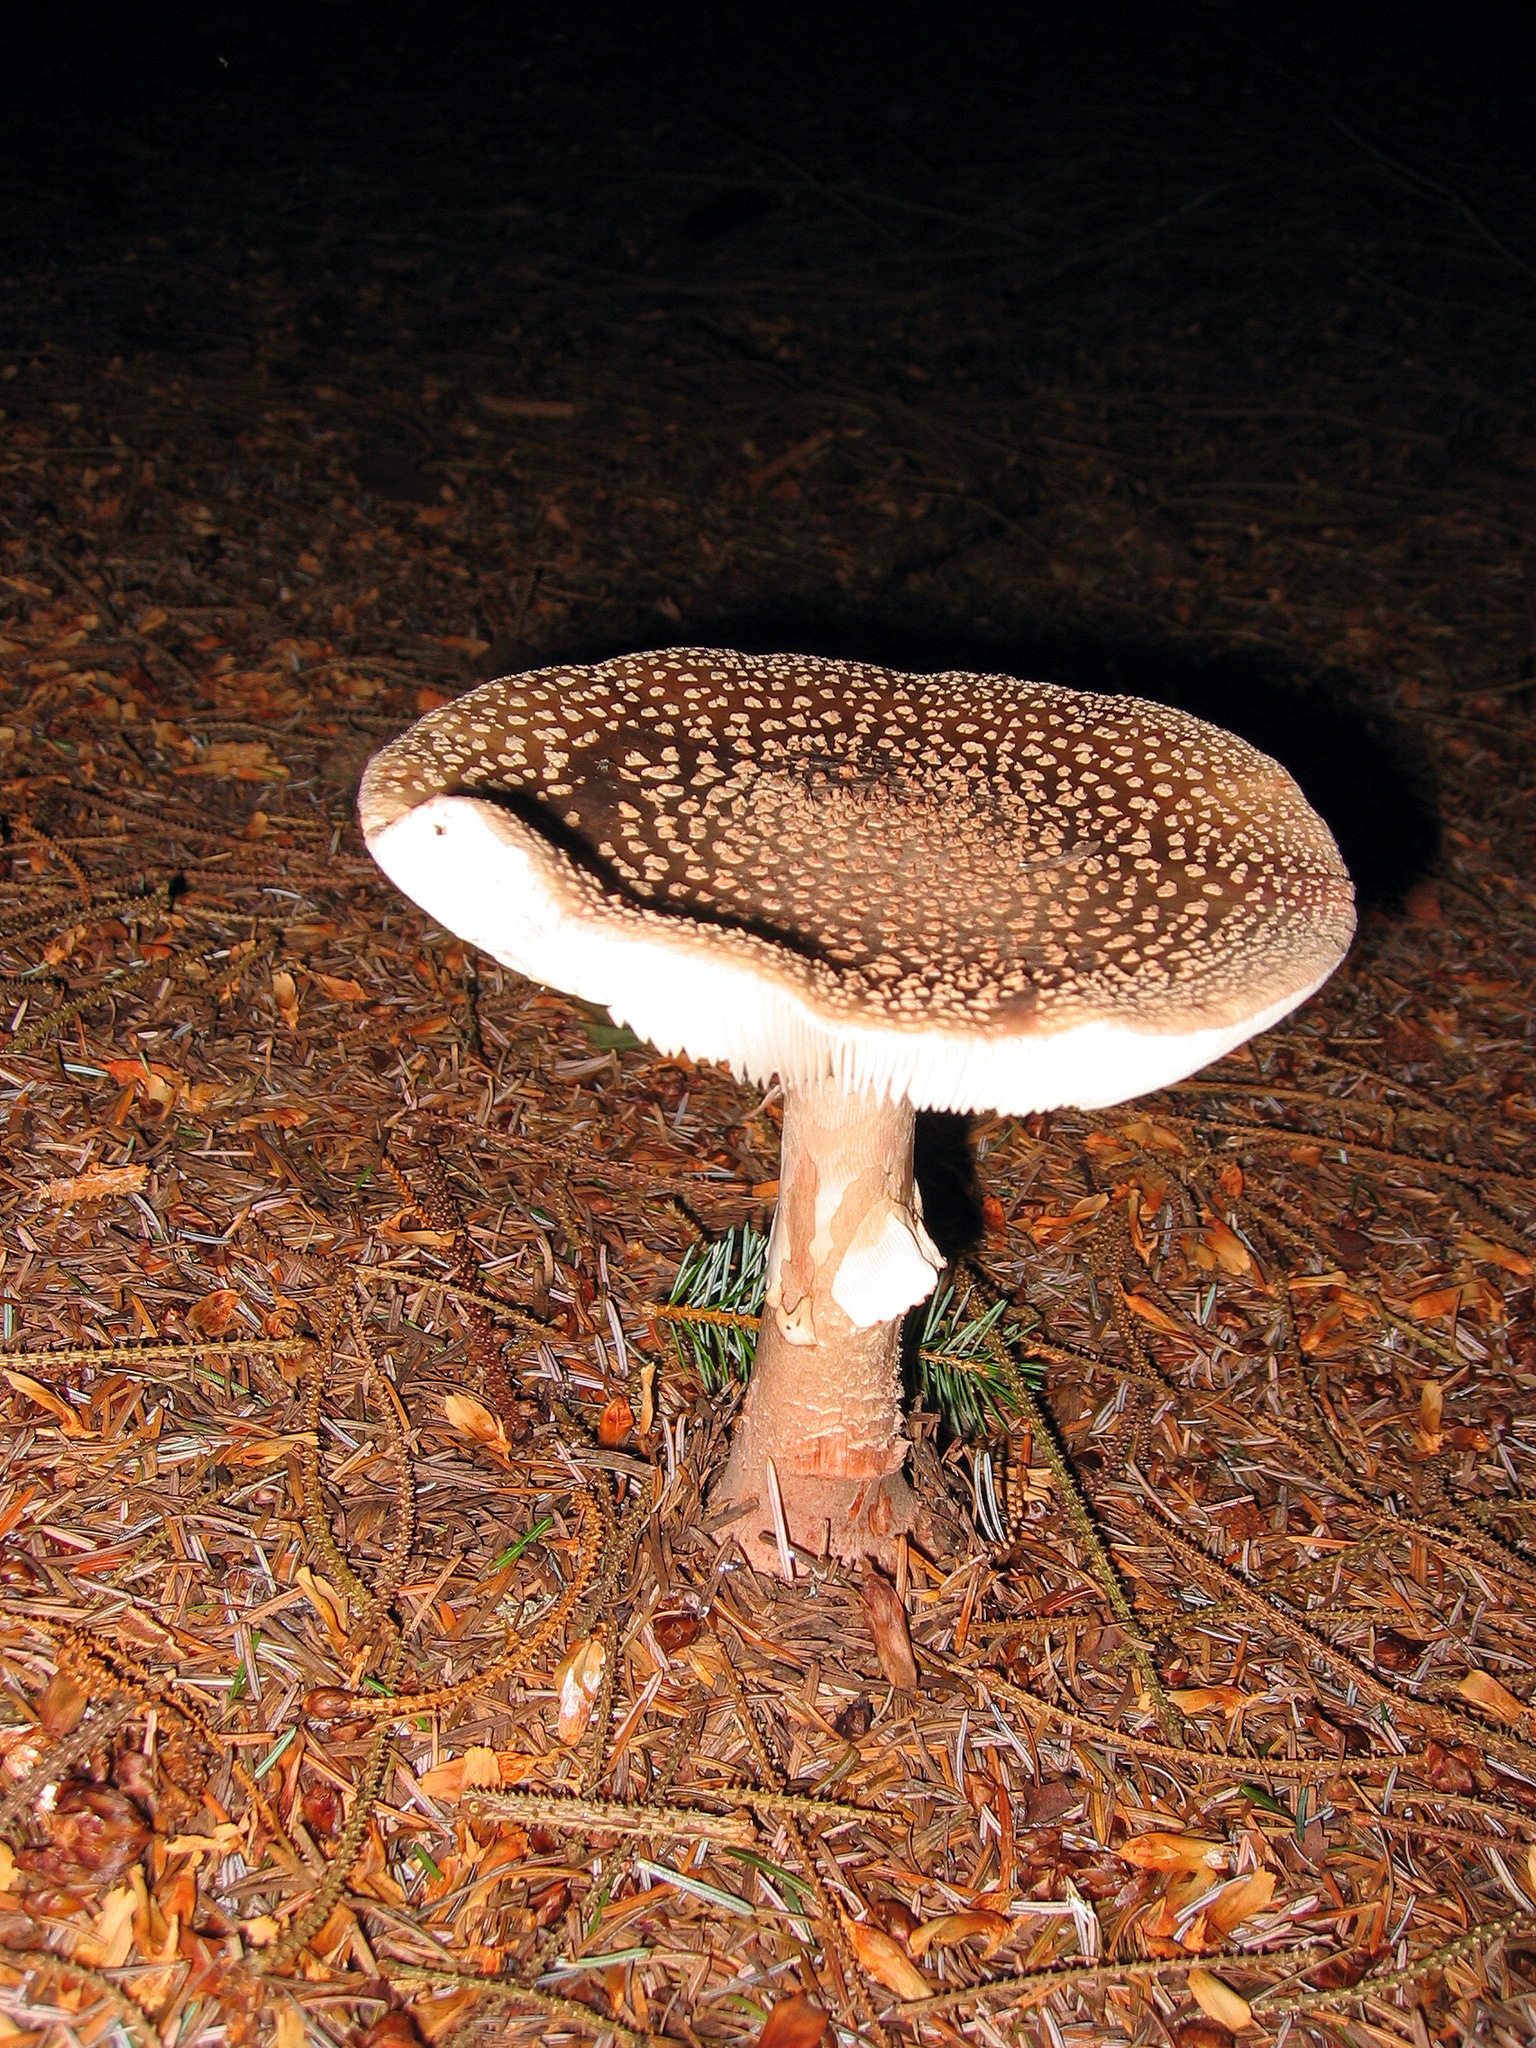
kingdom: Fungi
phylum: Basidiomycota
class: Agaricomycetes
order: Agaricales
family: Amanitaceae
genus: Amanita
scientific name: Amanita rubescens
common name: Blusher
